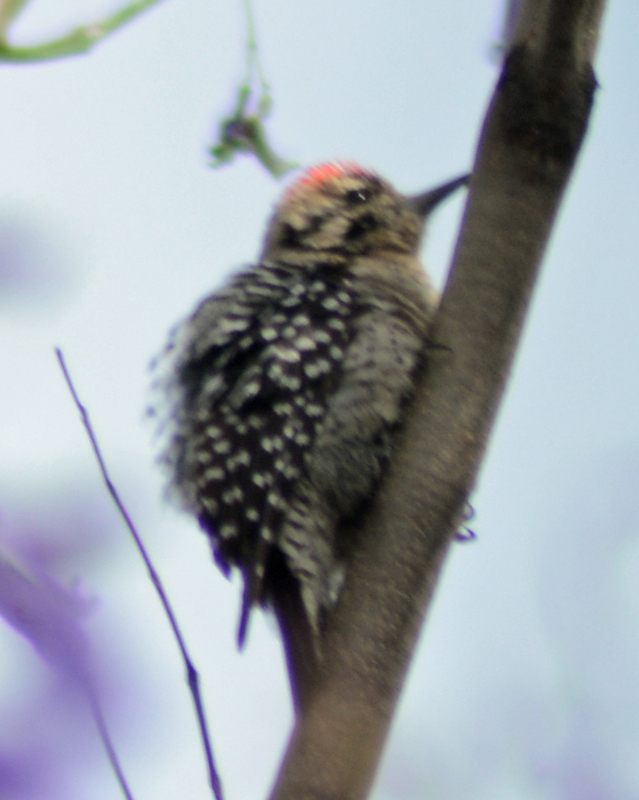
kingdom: Animalia
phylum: Chordata
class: Aves
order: Piciformes
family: Picidae
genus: Dryobates
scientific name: Dryobates scalaris
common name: Ladder-backed woodpecker
